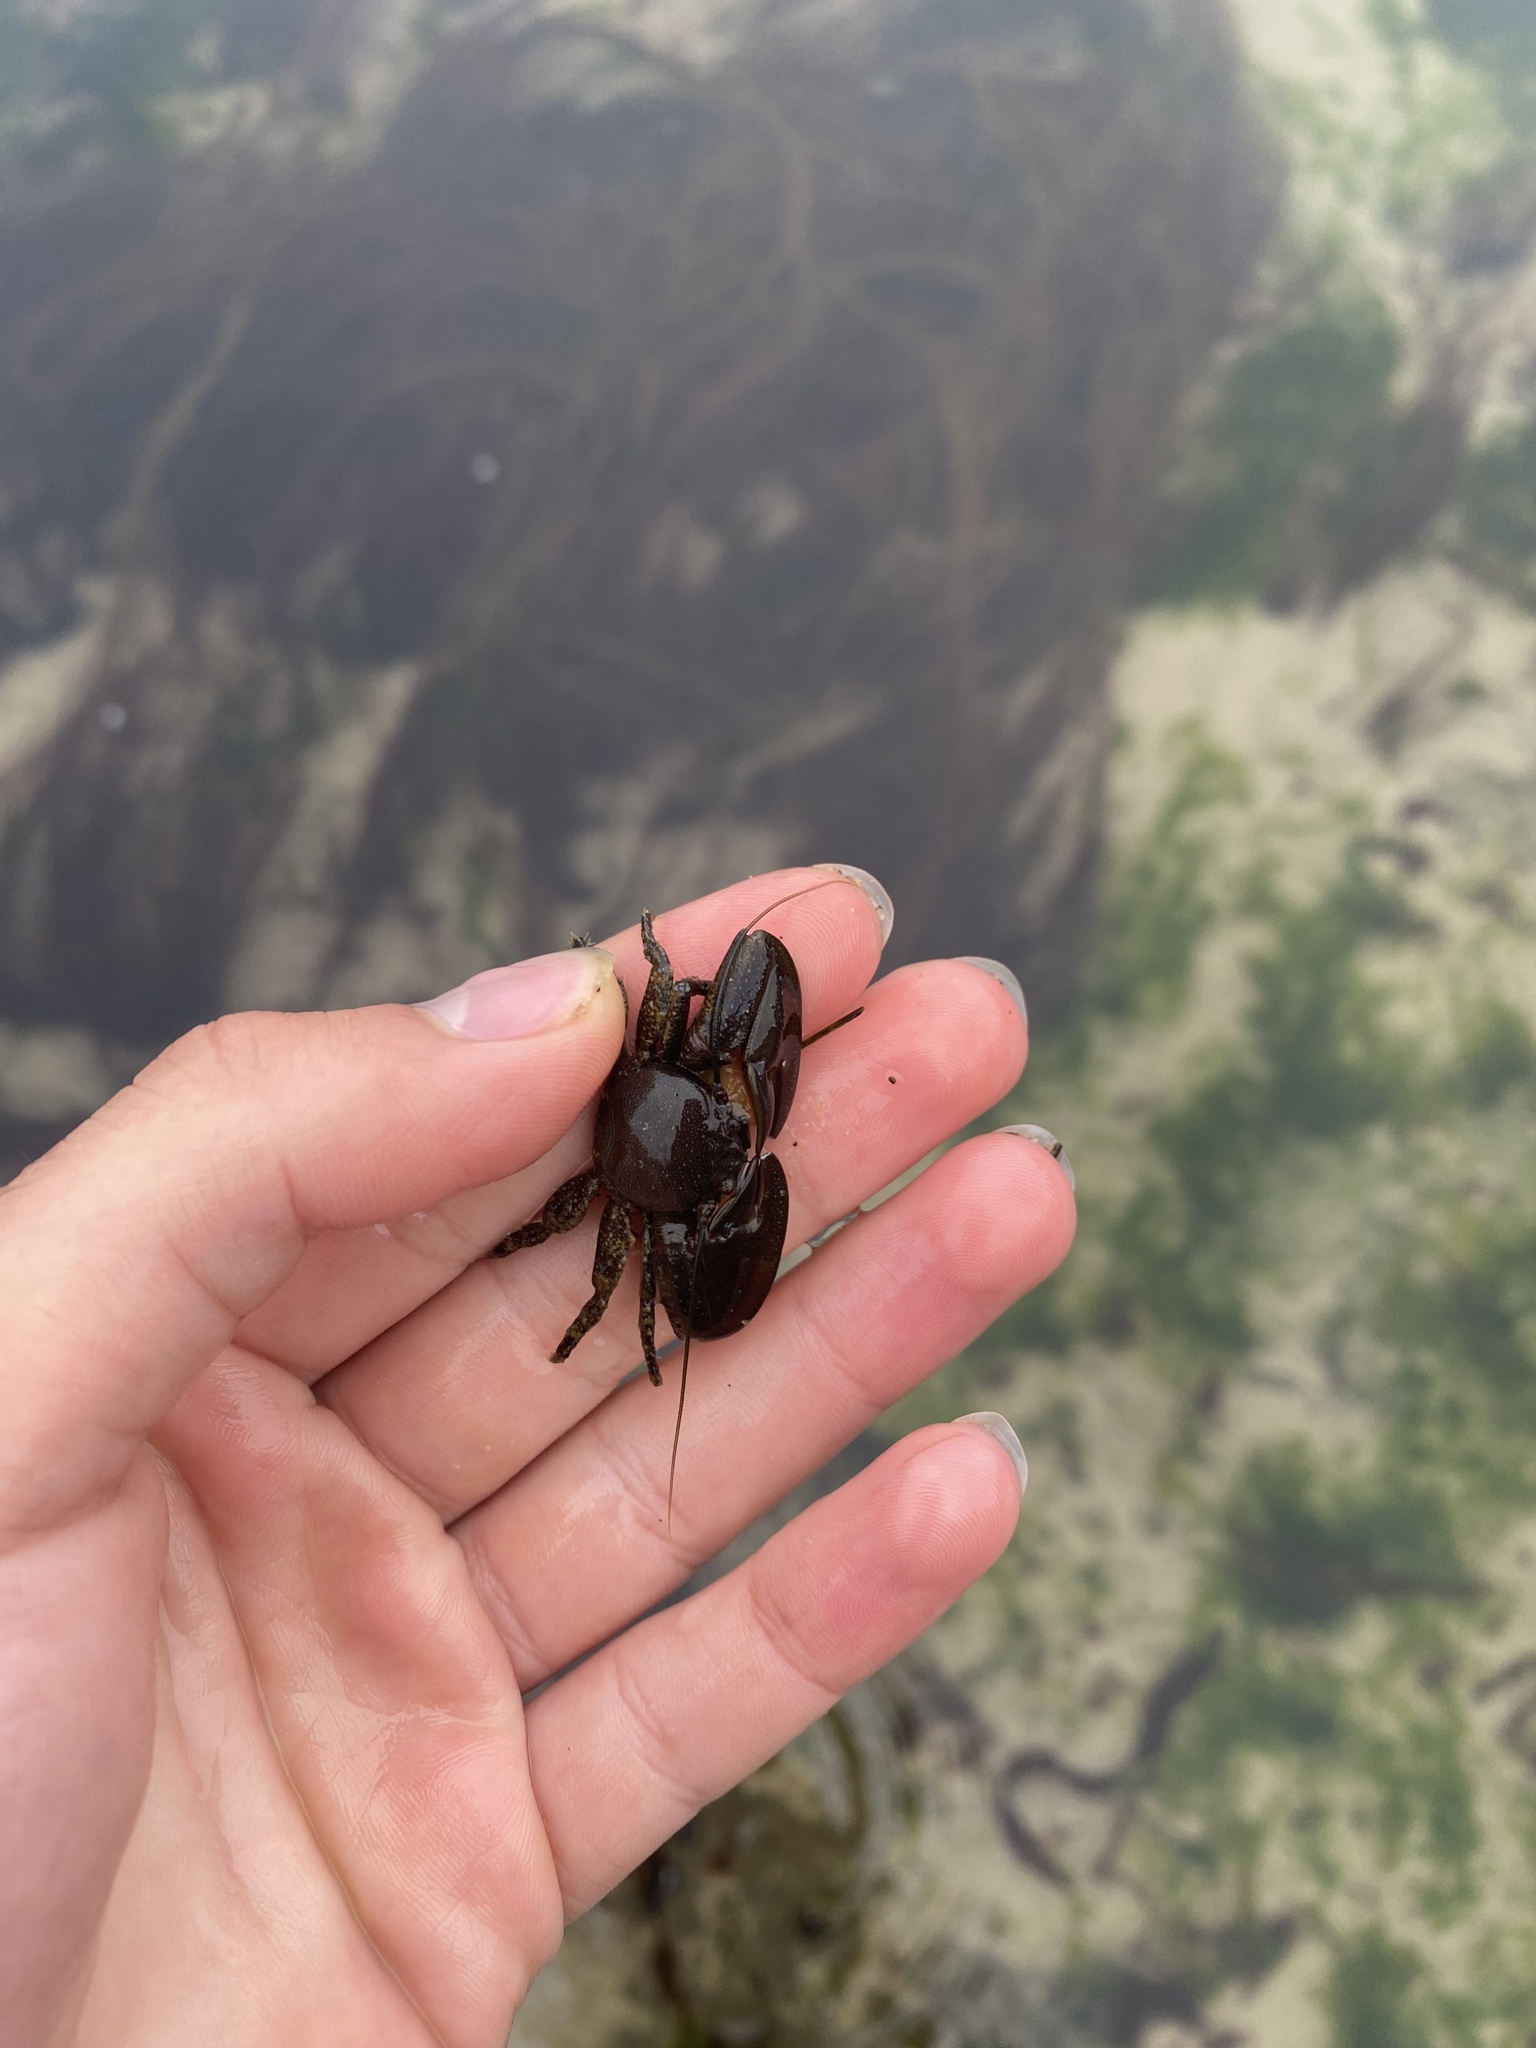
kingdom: Animalia
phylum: Arthropoda
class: Malacostraca
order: Decapoda
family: Porcellanidae
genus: Petrolisthes
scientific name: Petrolisthes eriomerus
